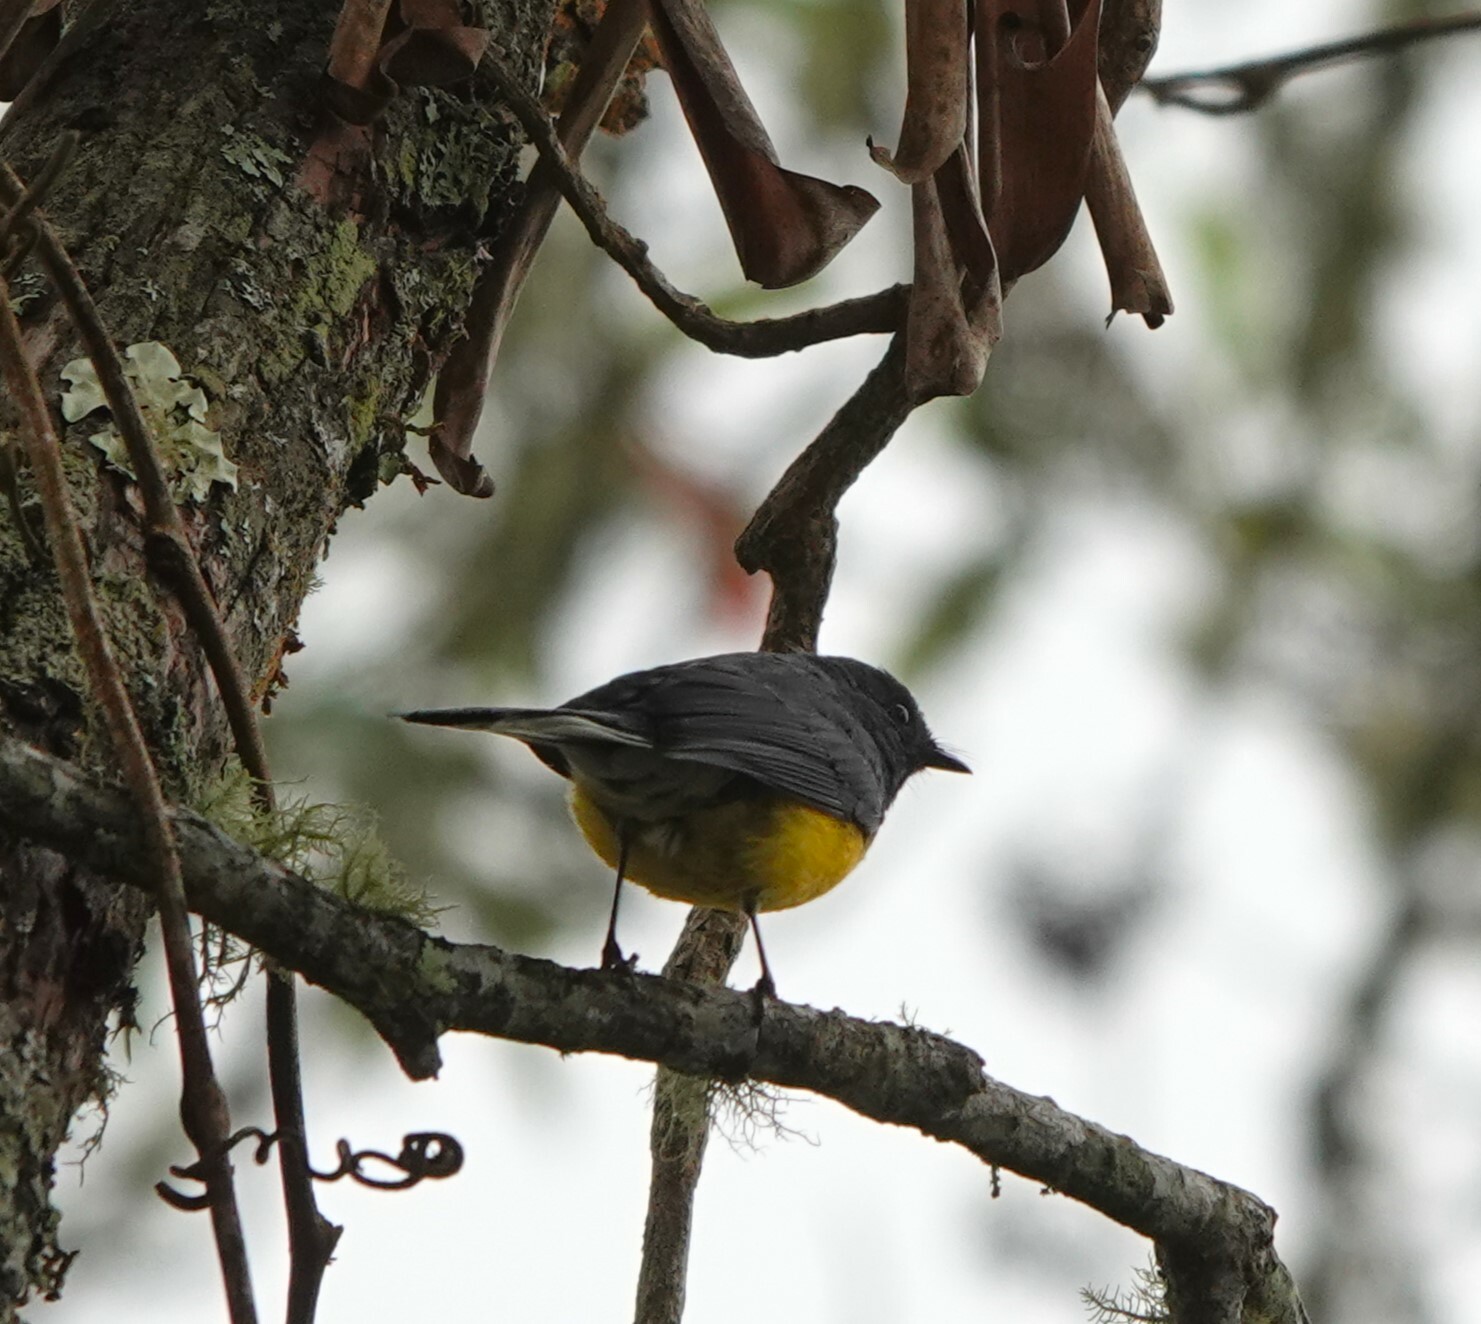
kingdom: Animalia
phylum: Chordata
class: Aves
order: Passeriformes
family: Parulidae
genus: Myioborus
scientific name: Myioborus miniatus
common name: Slate-throated redstart
